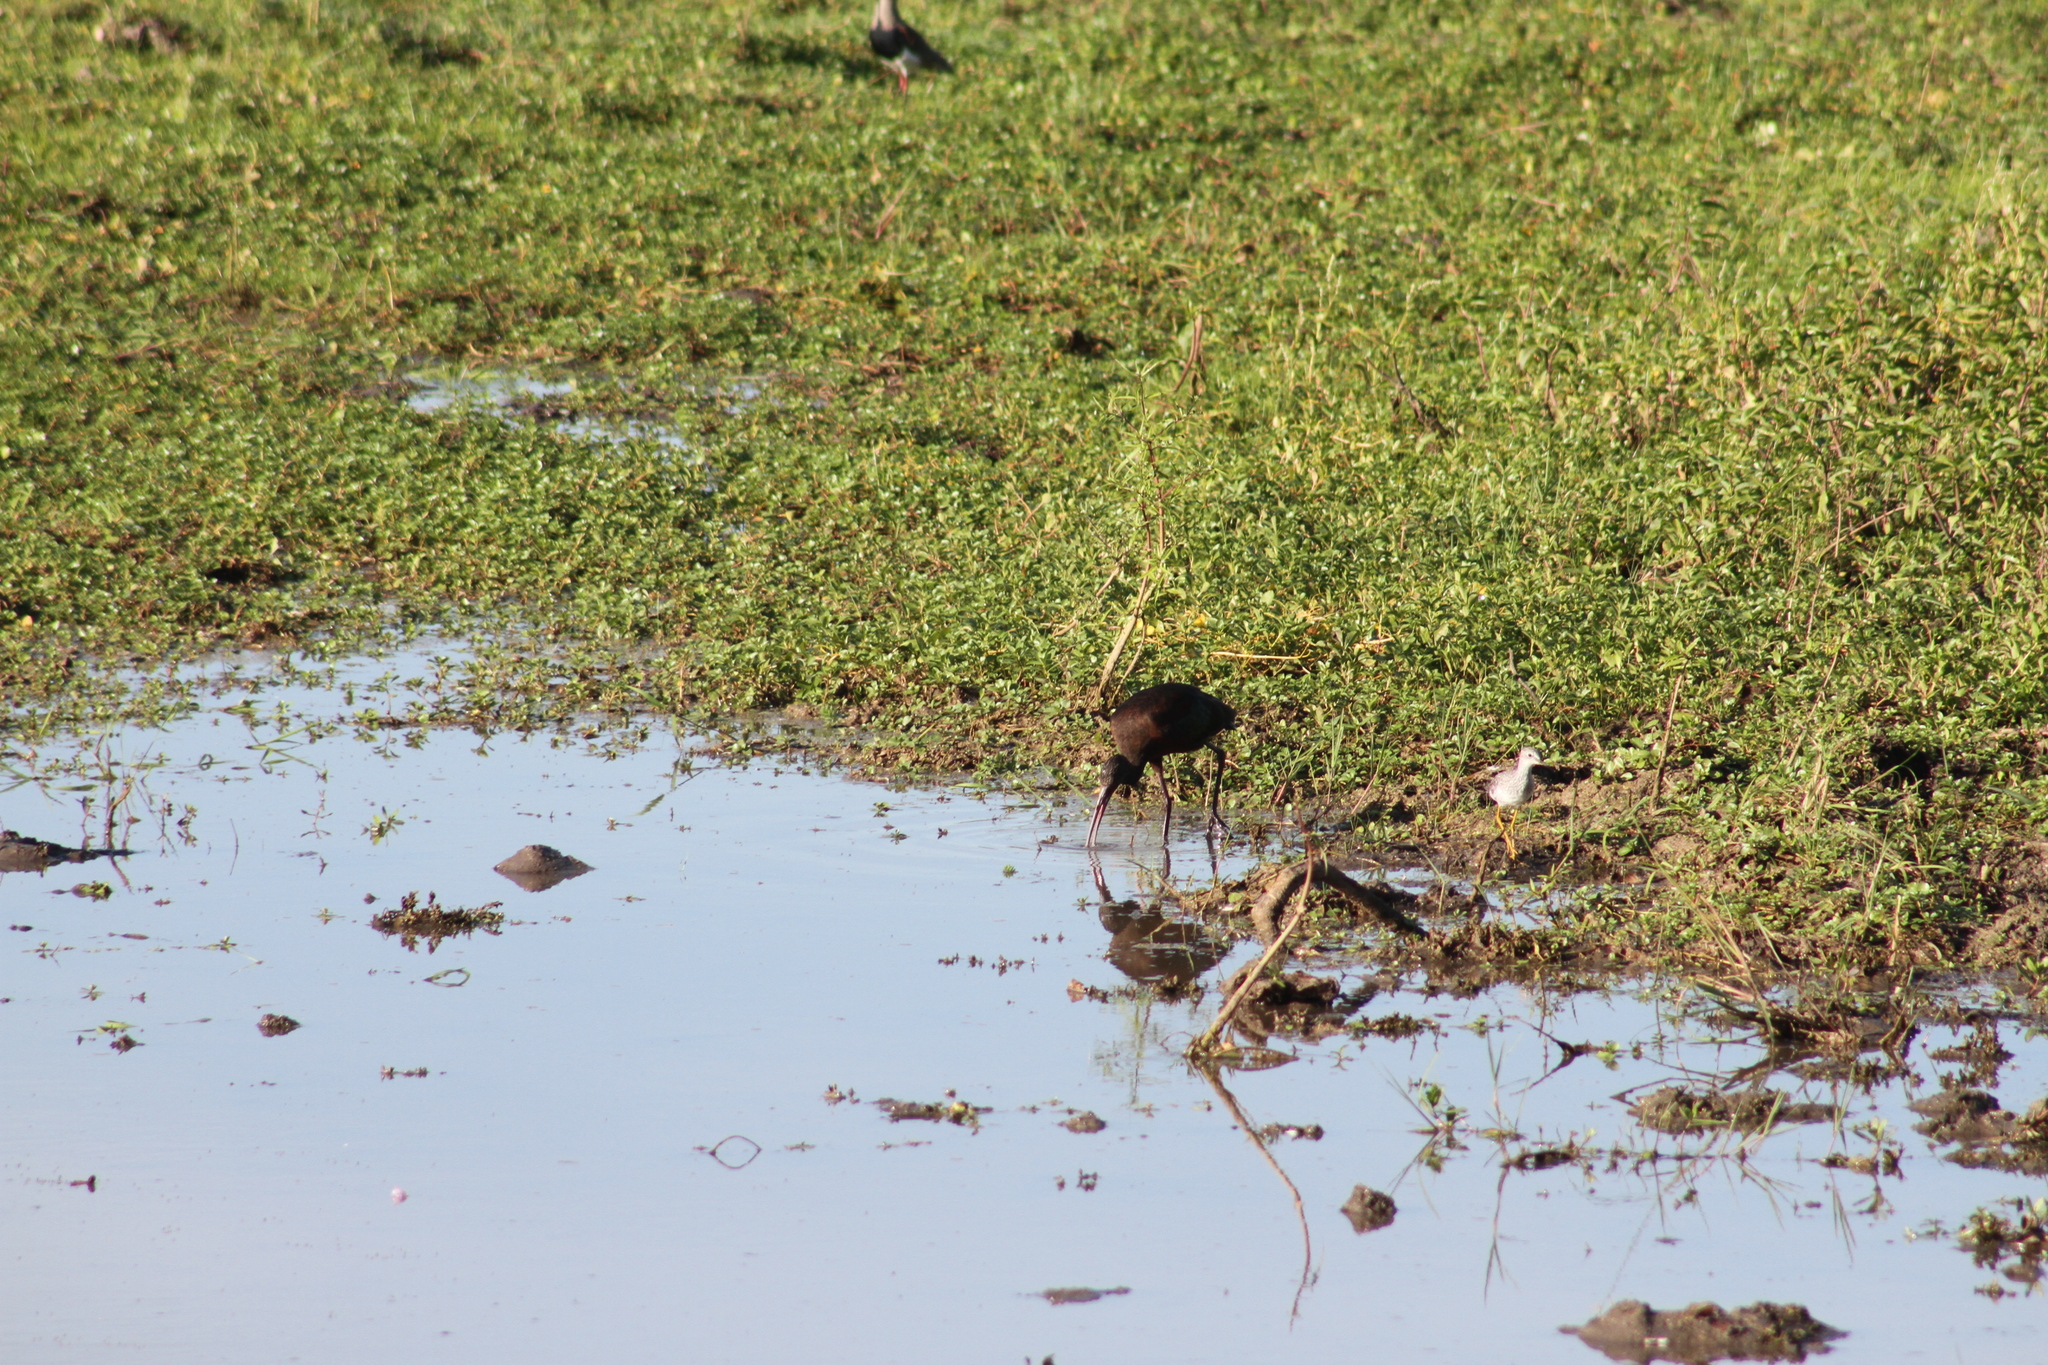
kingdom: Animalia
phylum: Chordata
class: Aves
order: Pelecaniformes
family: Threskiornithidae
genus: Plegadis
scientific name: Plegadis chihi
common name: White-faced ibis
